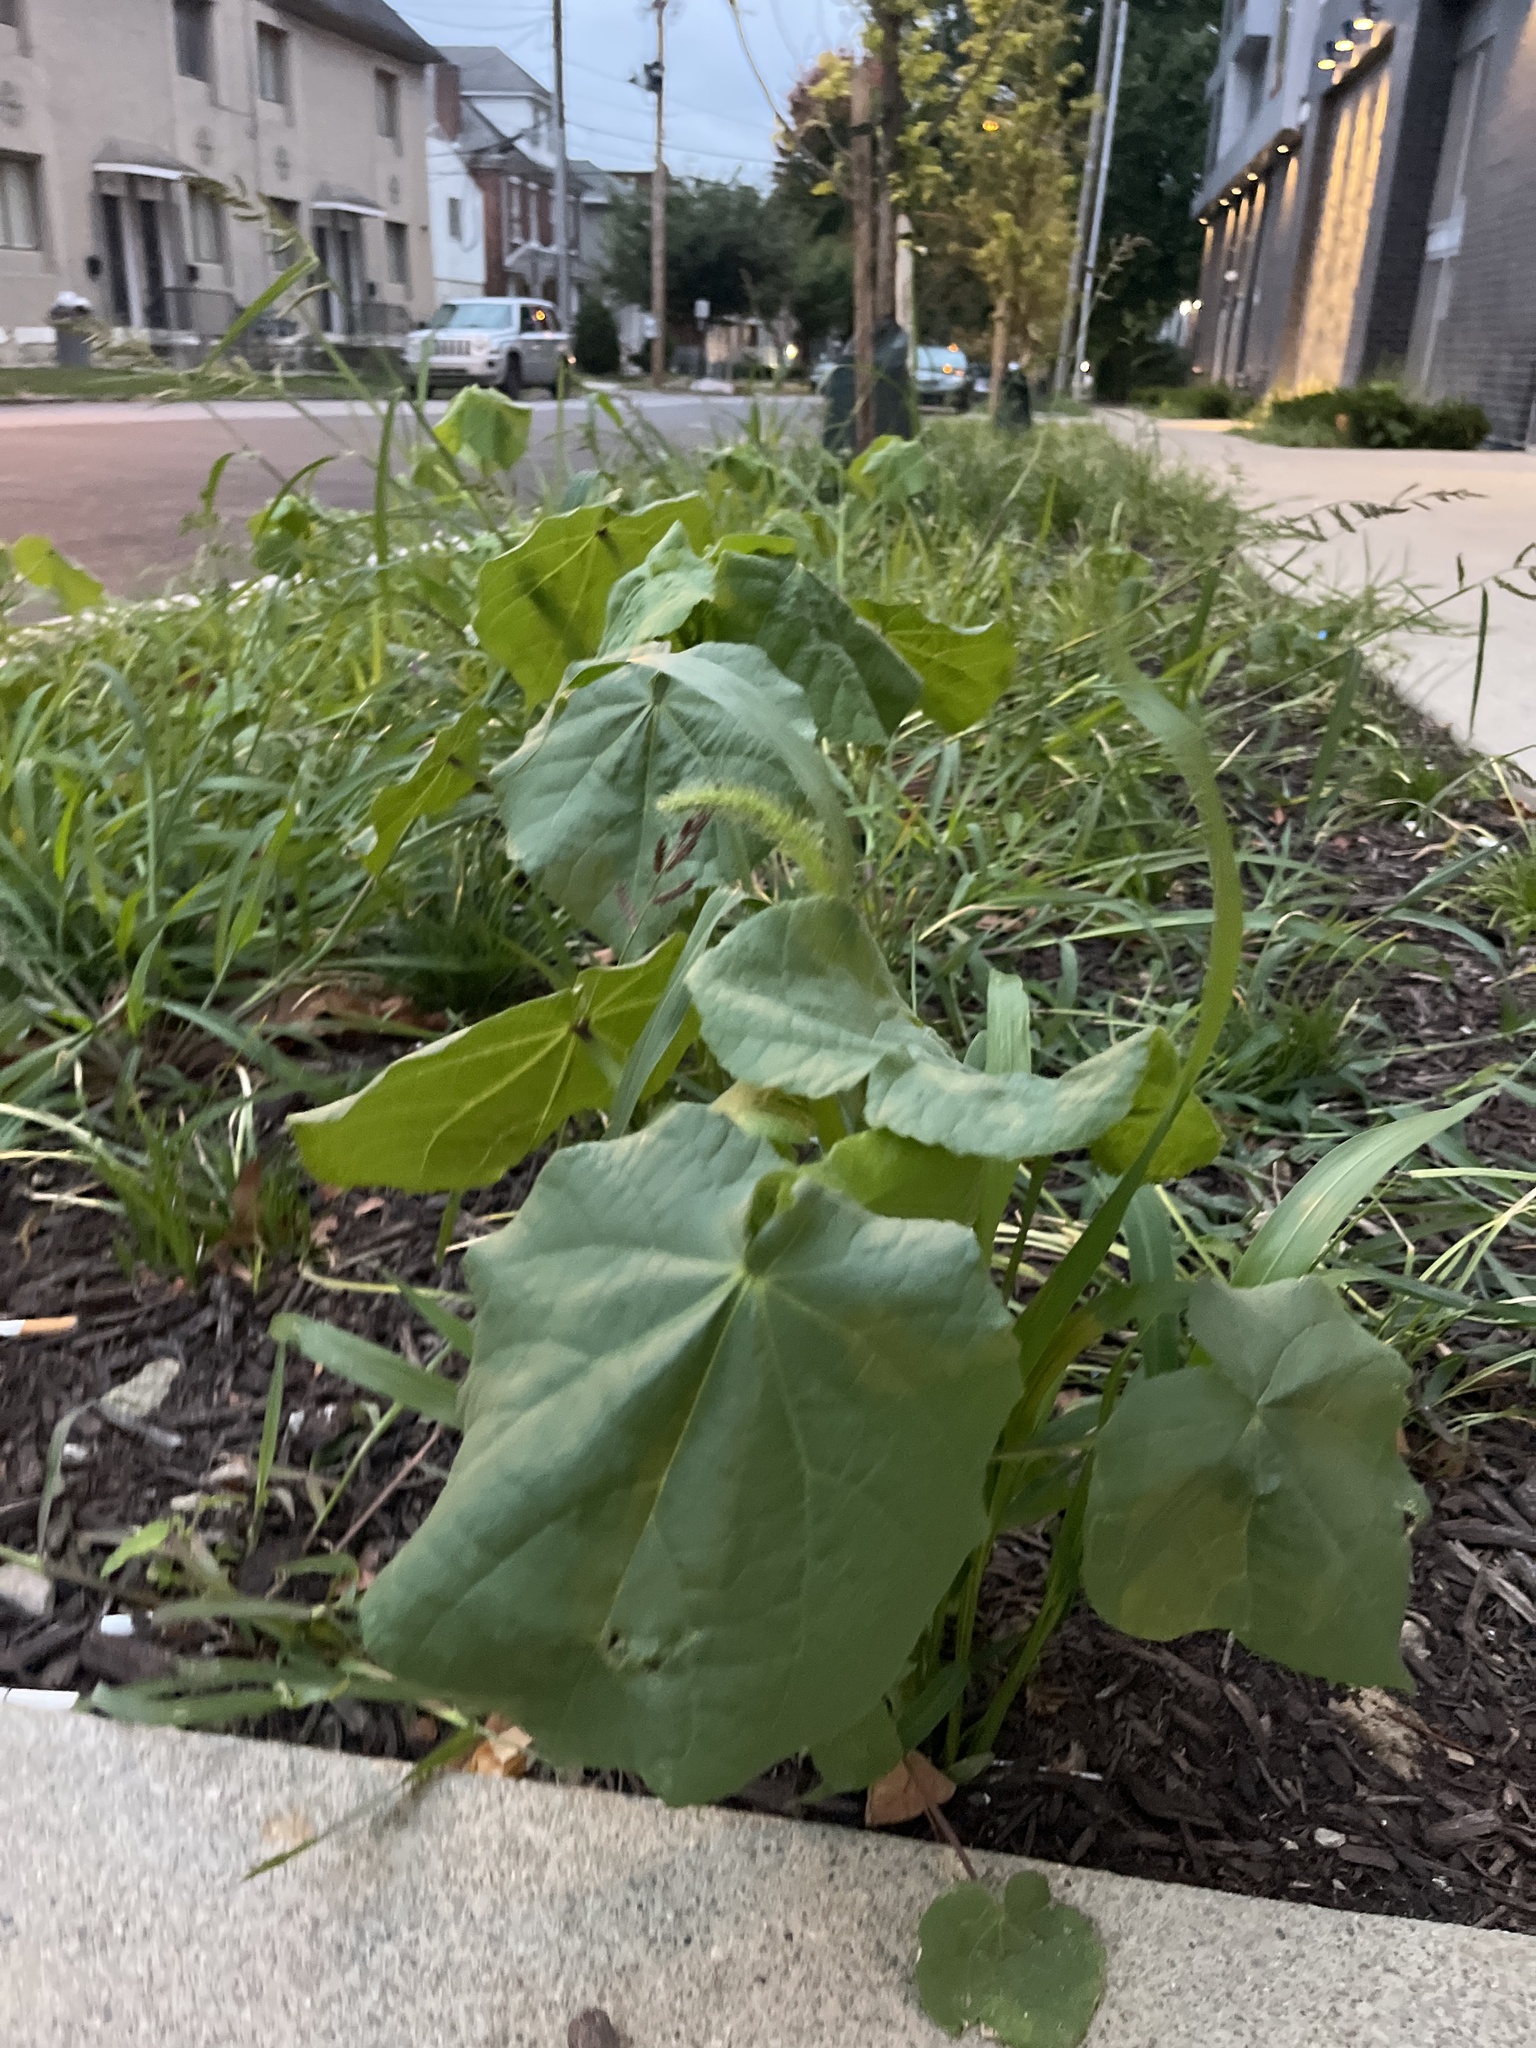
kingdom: Plantae
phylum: Tracheophyta
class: Magnoliopsida
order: Malvales
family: Malvaceae
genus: Abutilon
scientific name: Abutilon theophrasti
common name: Velvetleaf
